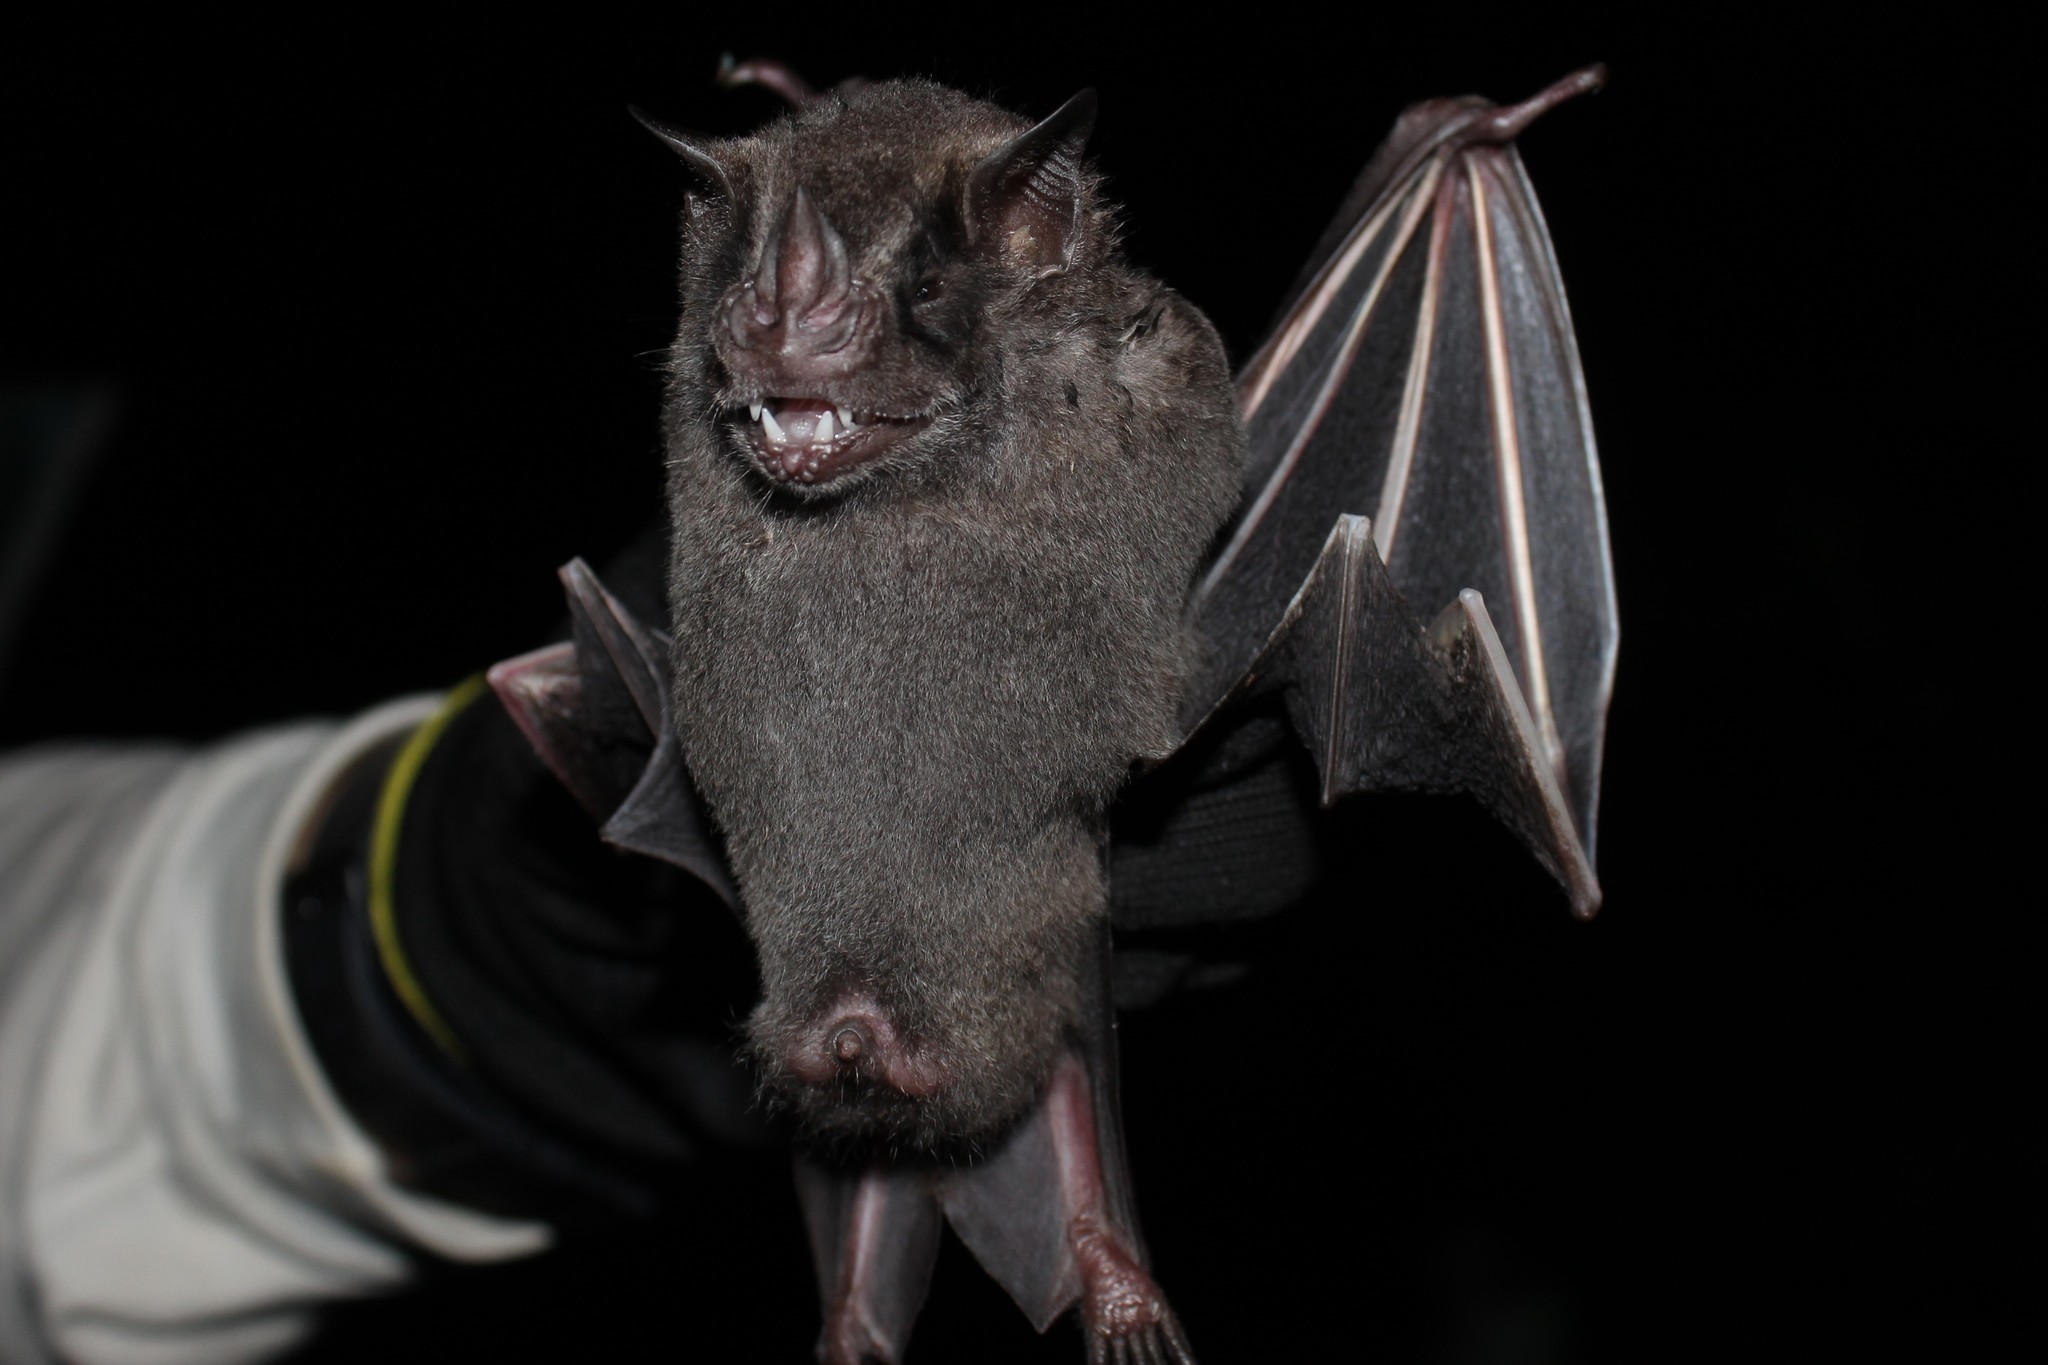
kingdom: Animalia
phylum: Chordata
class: Mammalia
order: Chiroptera
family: Phyllostomidae
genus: Artibeus
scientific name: Artibeus fimbriatus
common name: Fringed fruit-eating bat
